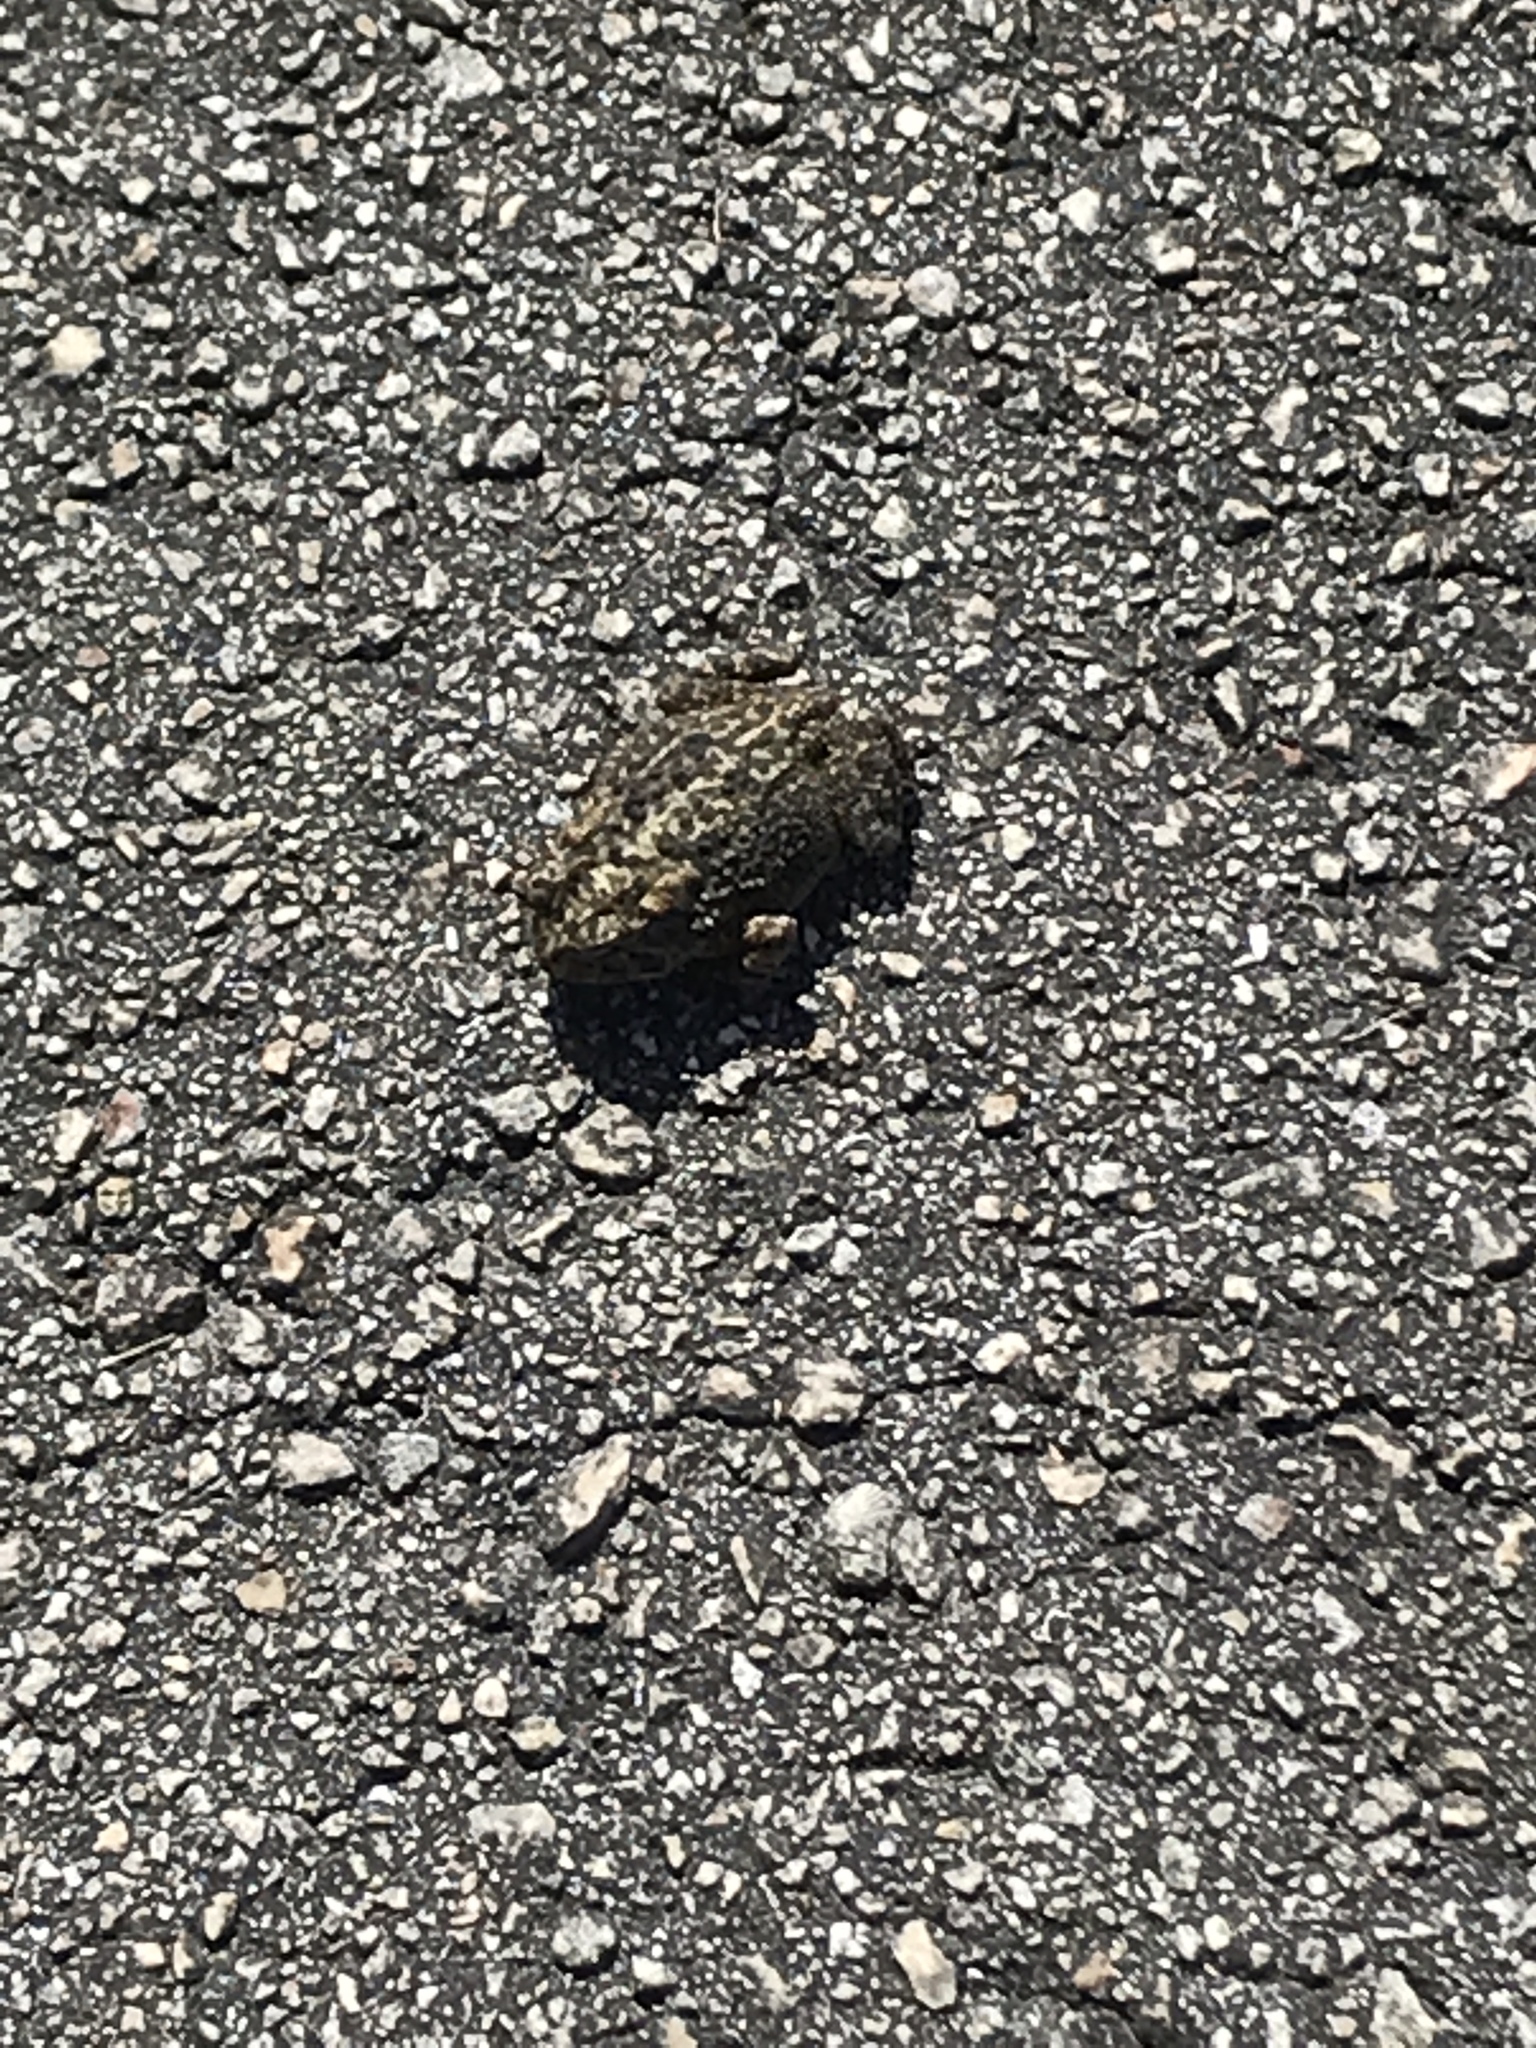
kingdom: Animalia
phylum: Chordata
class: Amphibia
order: Anura
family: Bufonidae
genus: Anaxyrus
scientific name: Anaxyrus terrestris
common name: Southern toad
